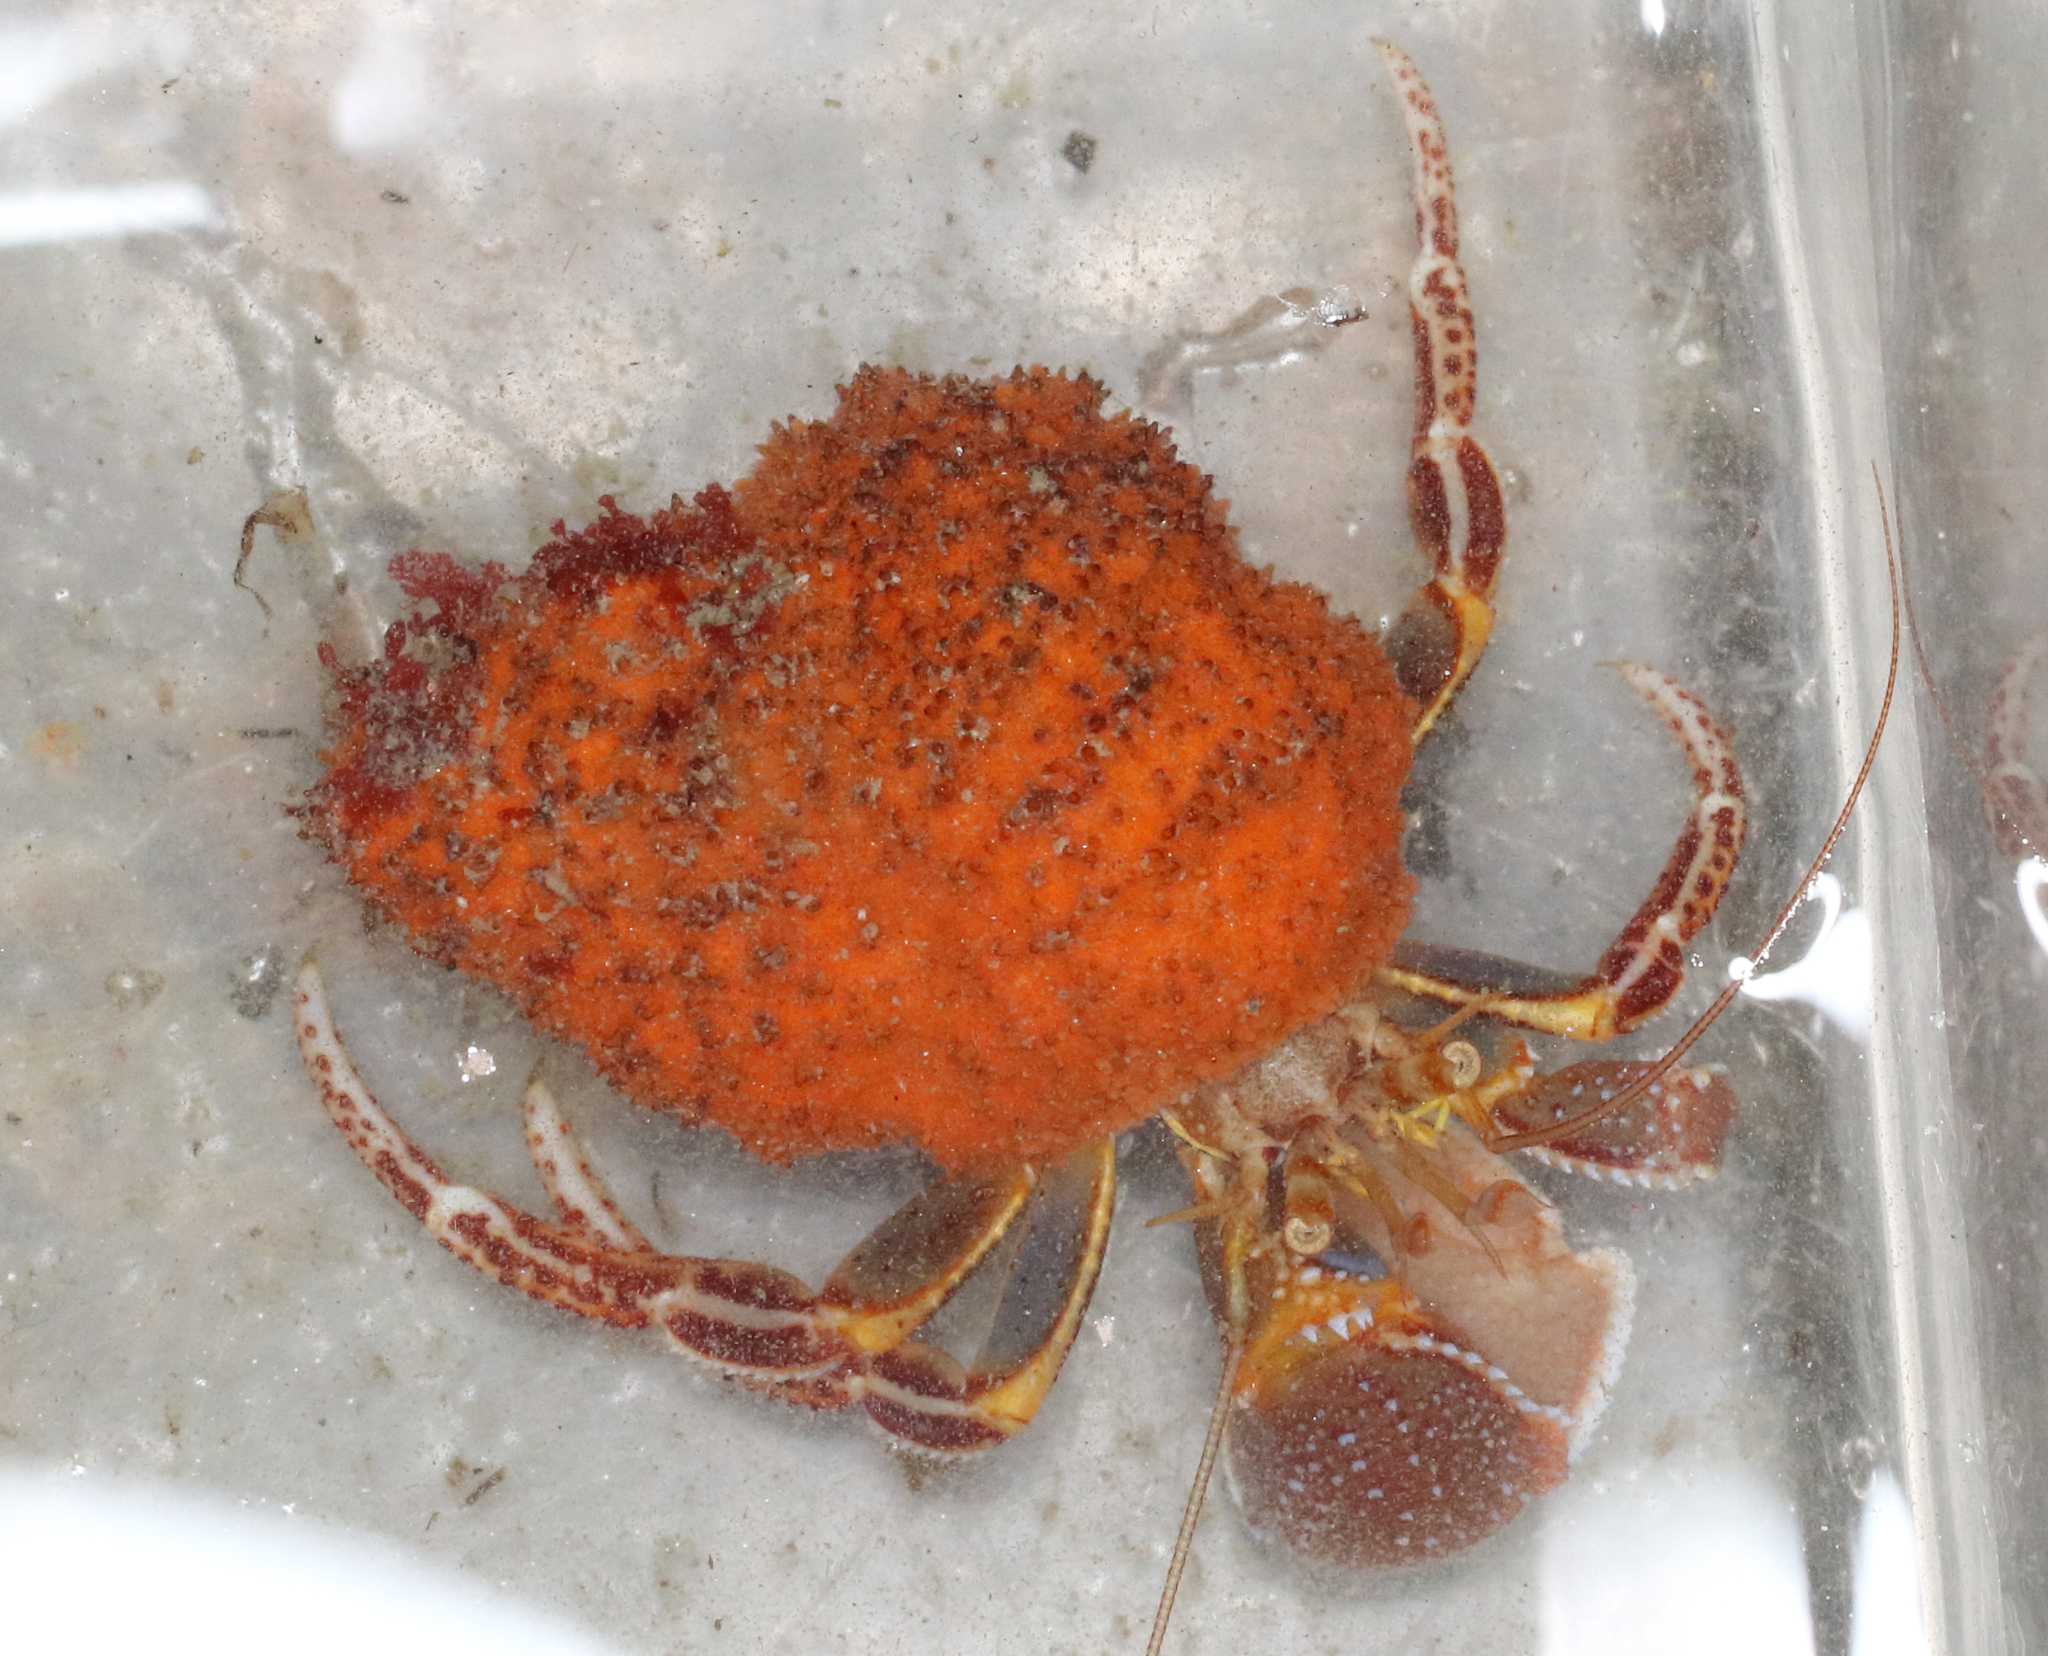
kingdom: Animalia
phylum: Arthropoda
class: Malacostraca
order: Decapoda
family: Paguridae
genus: Elassochirus
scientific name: Elassochirus tenuimanus
